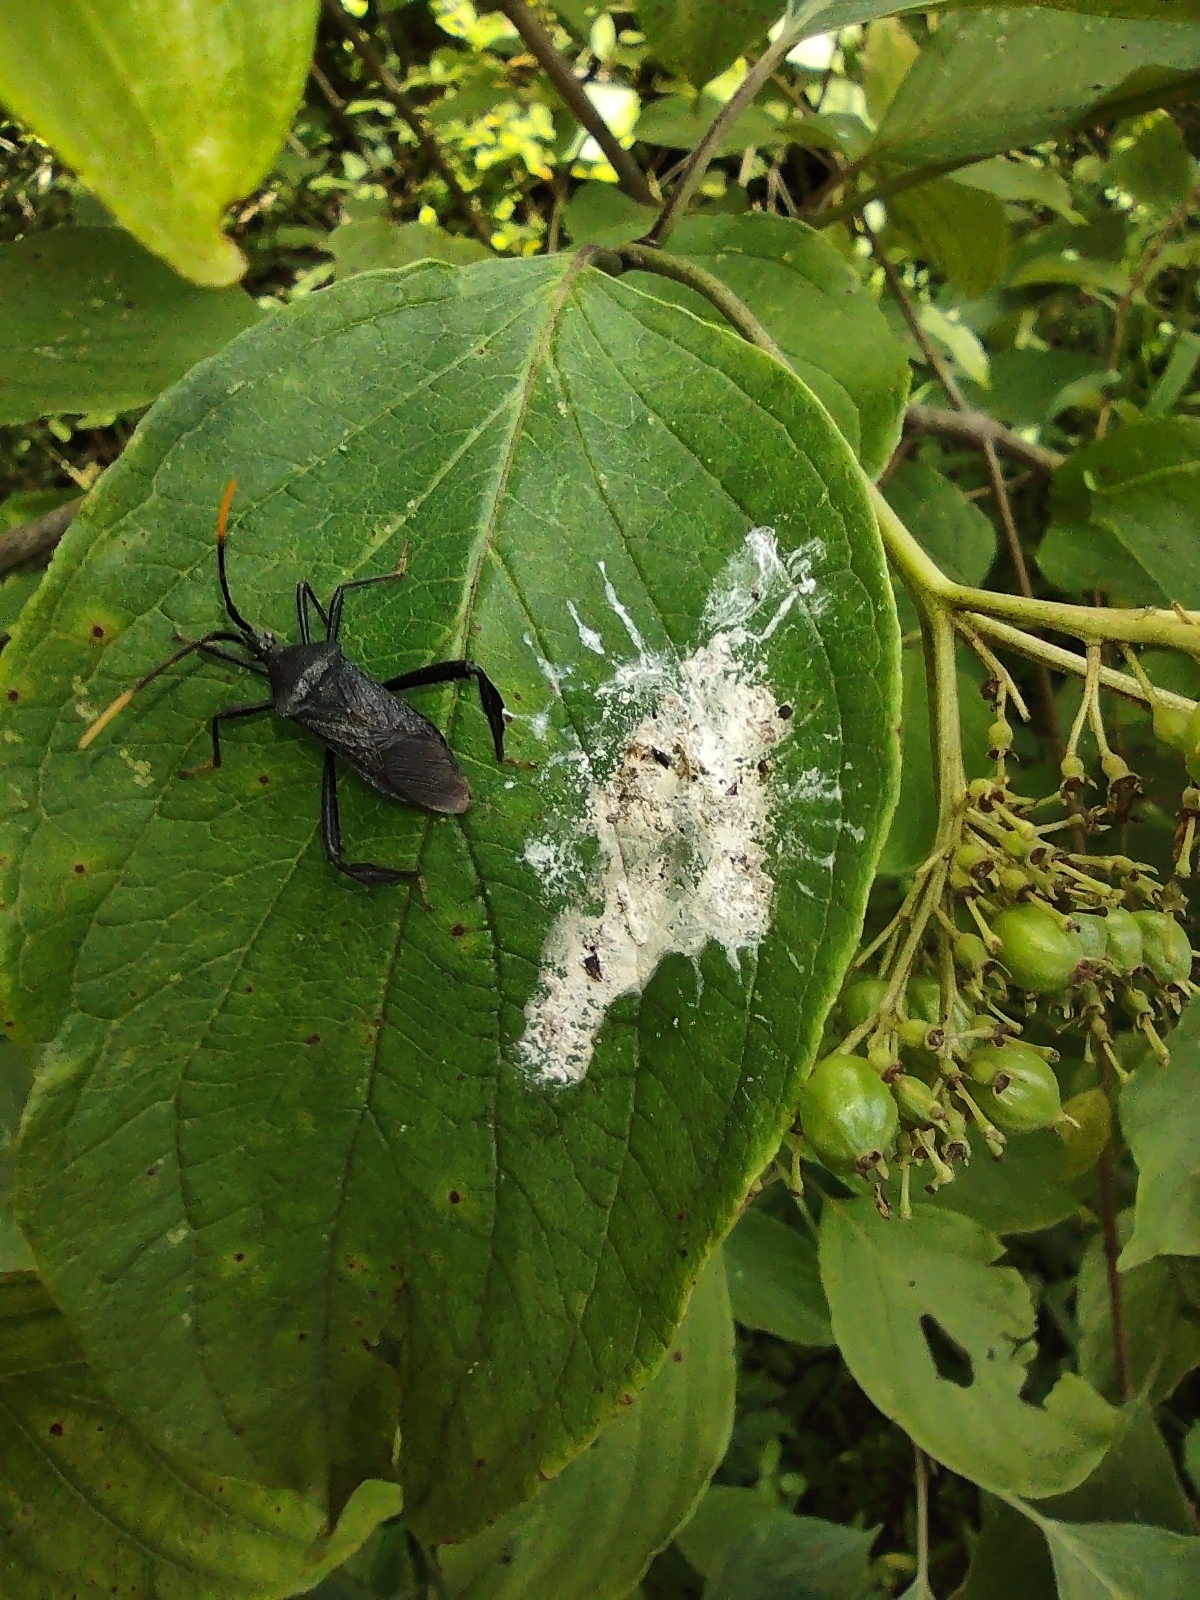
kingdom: Animalia
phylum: Arthropoda
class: Insecta
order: Hemiptera
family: Coreidae
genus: Acanthocephala
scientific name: Acanthocephala terminalis
